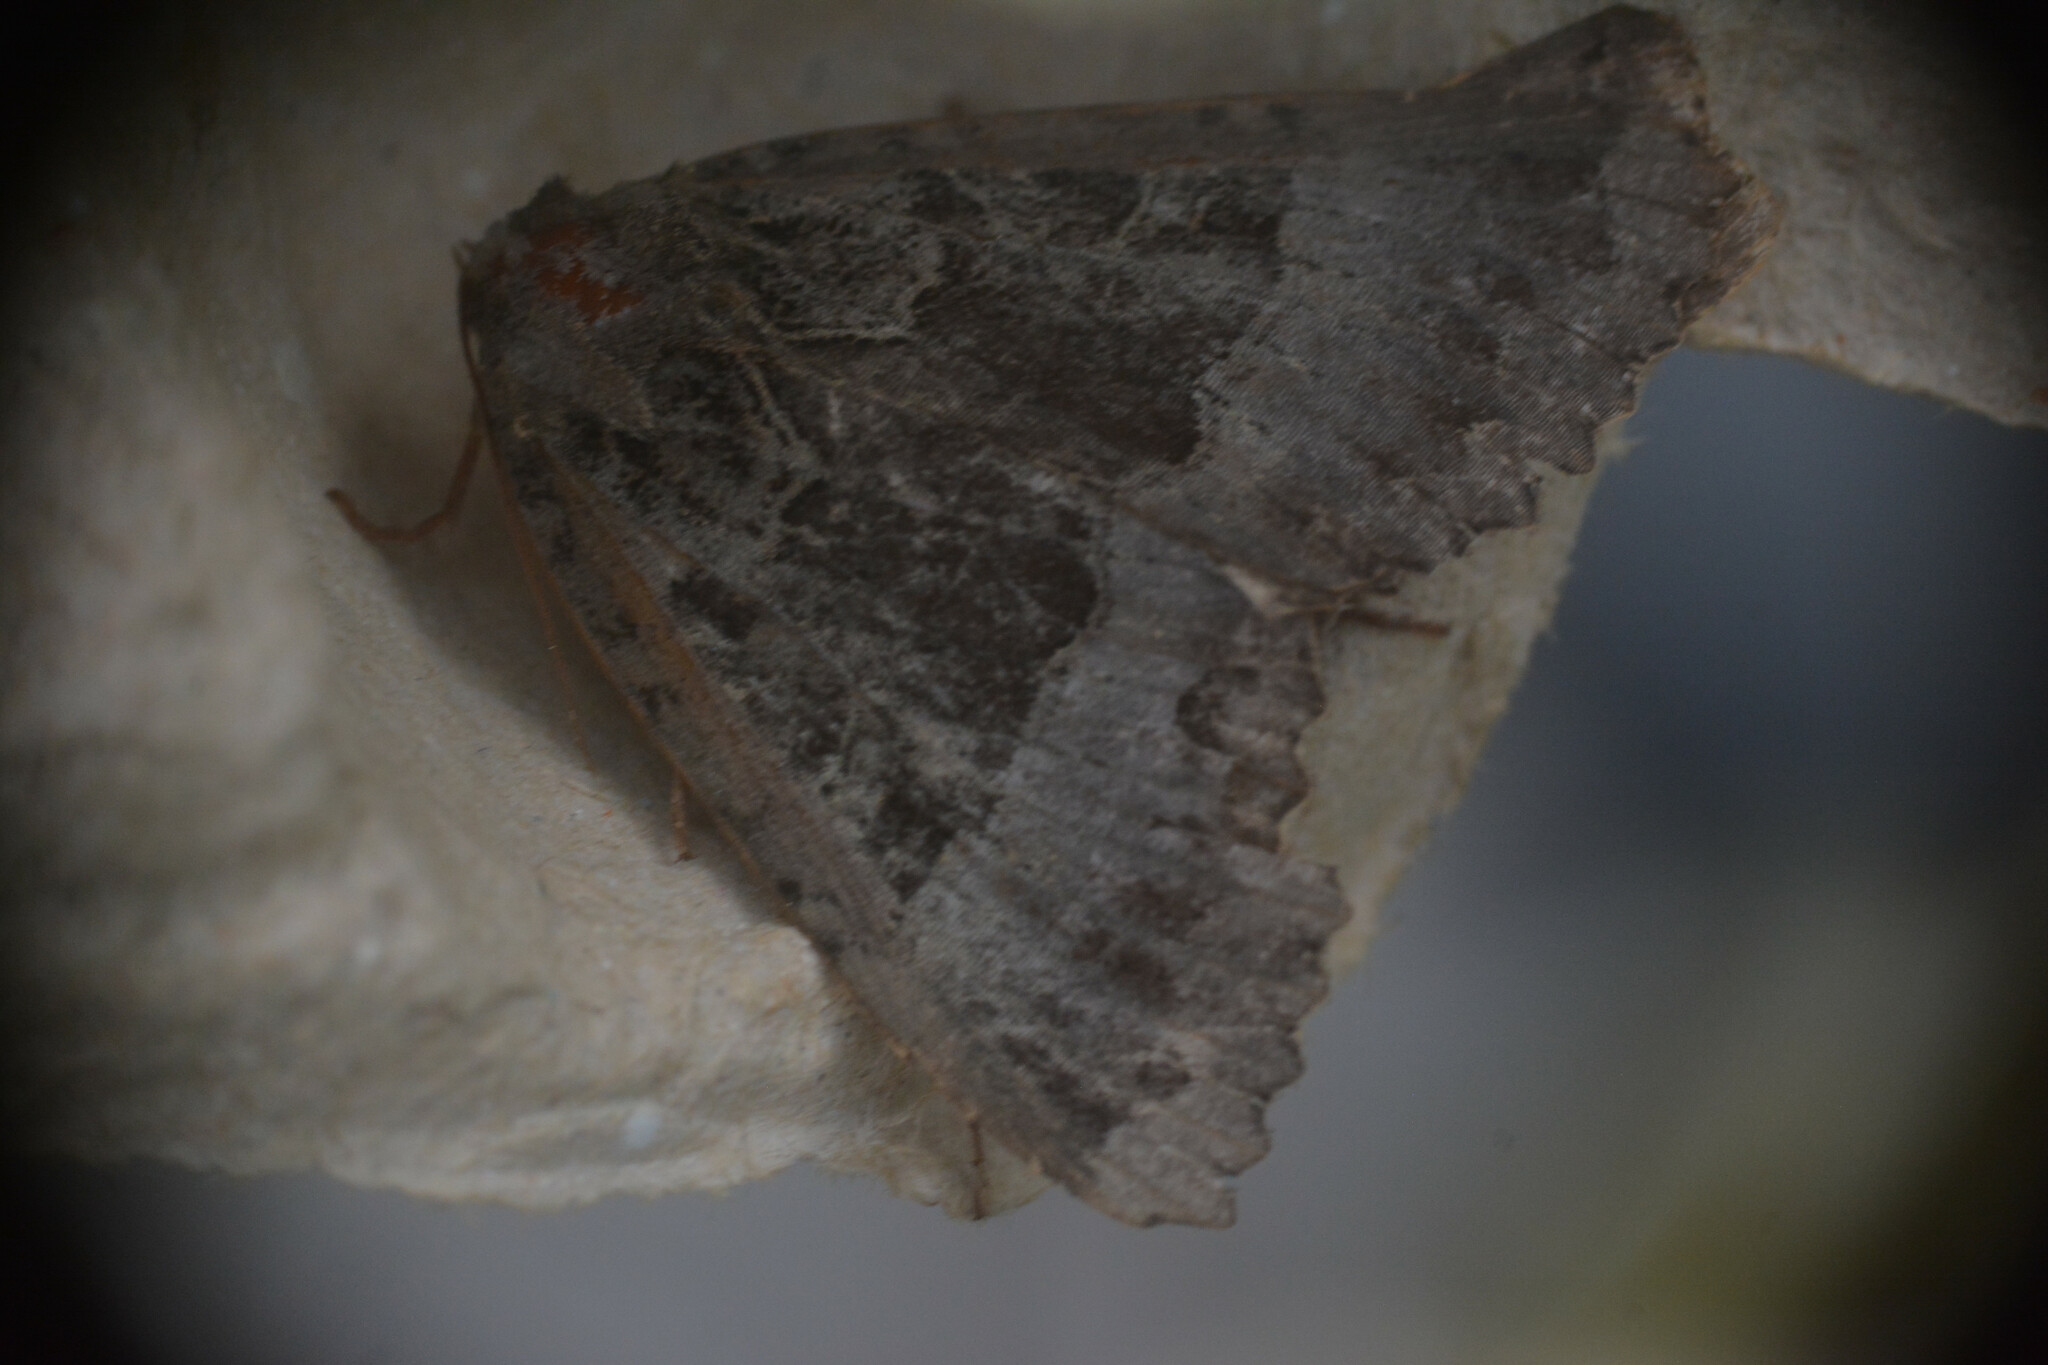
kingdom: Animalia
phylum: Arthropoda
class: Insecta
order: Lepidoptera
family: Noctuidae
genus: Mormo
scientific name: Mormo maura
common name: Old lady
